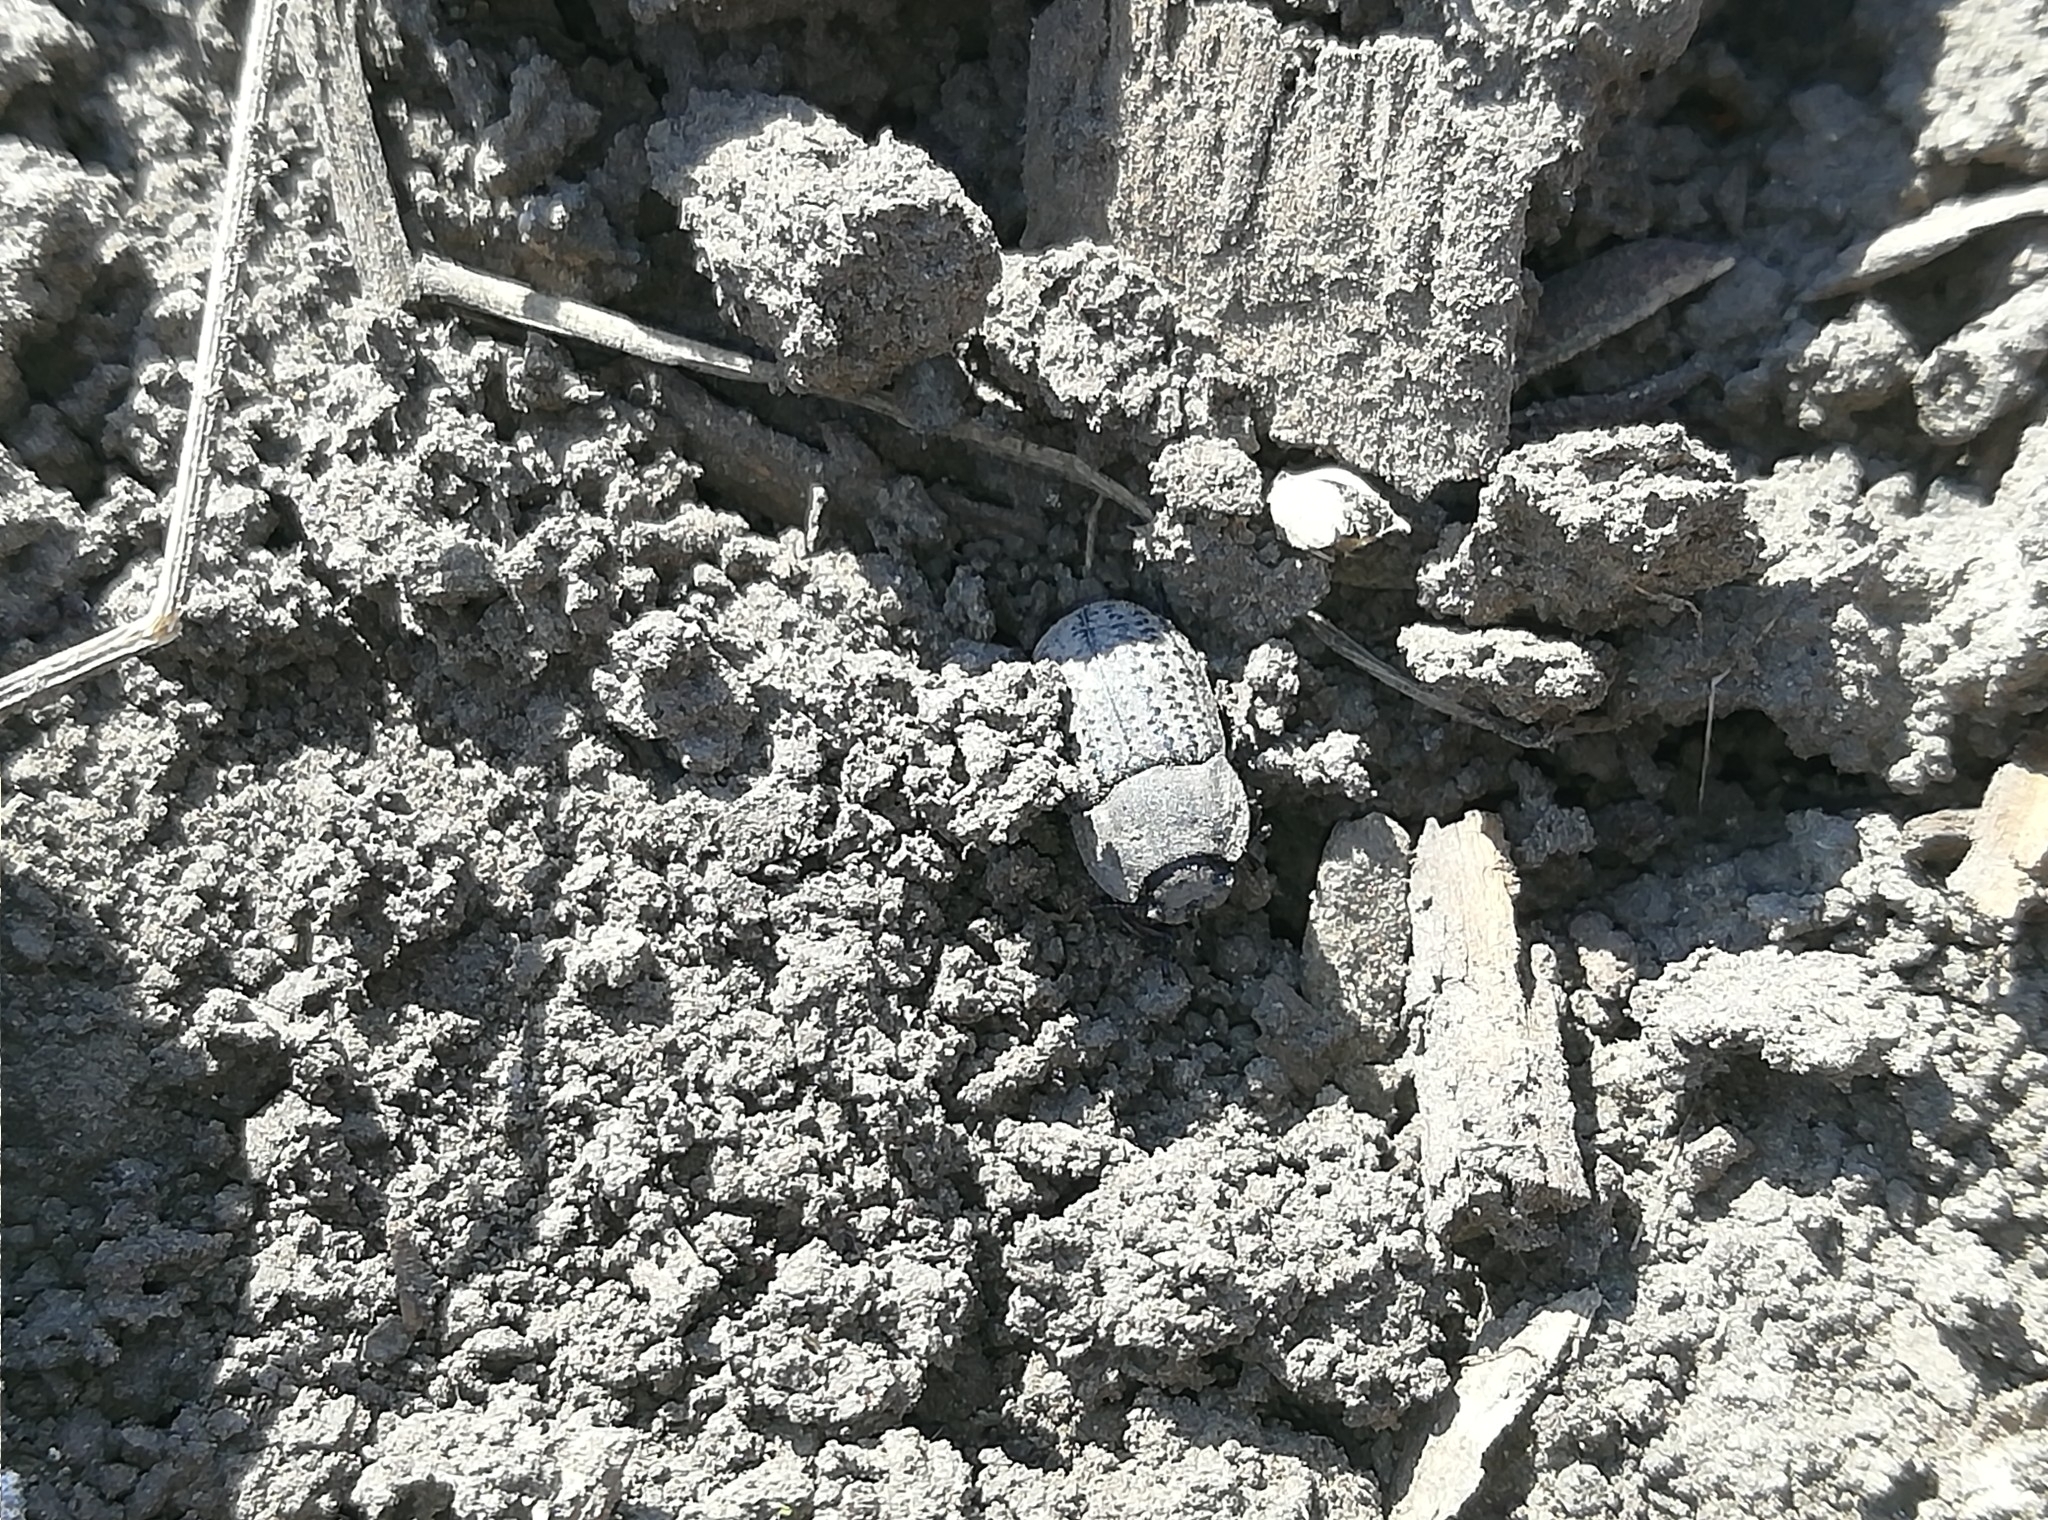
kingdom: Animalia
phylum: Arthropoda
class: Insecta
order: Coleoptera
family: Tenebrionidae
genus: Opatrum
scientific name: Opatrum sabulosum
